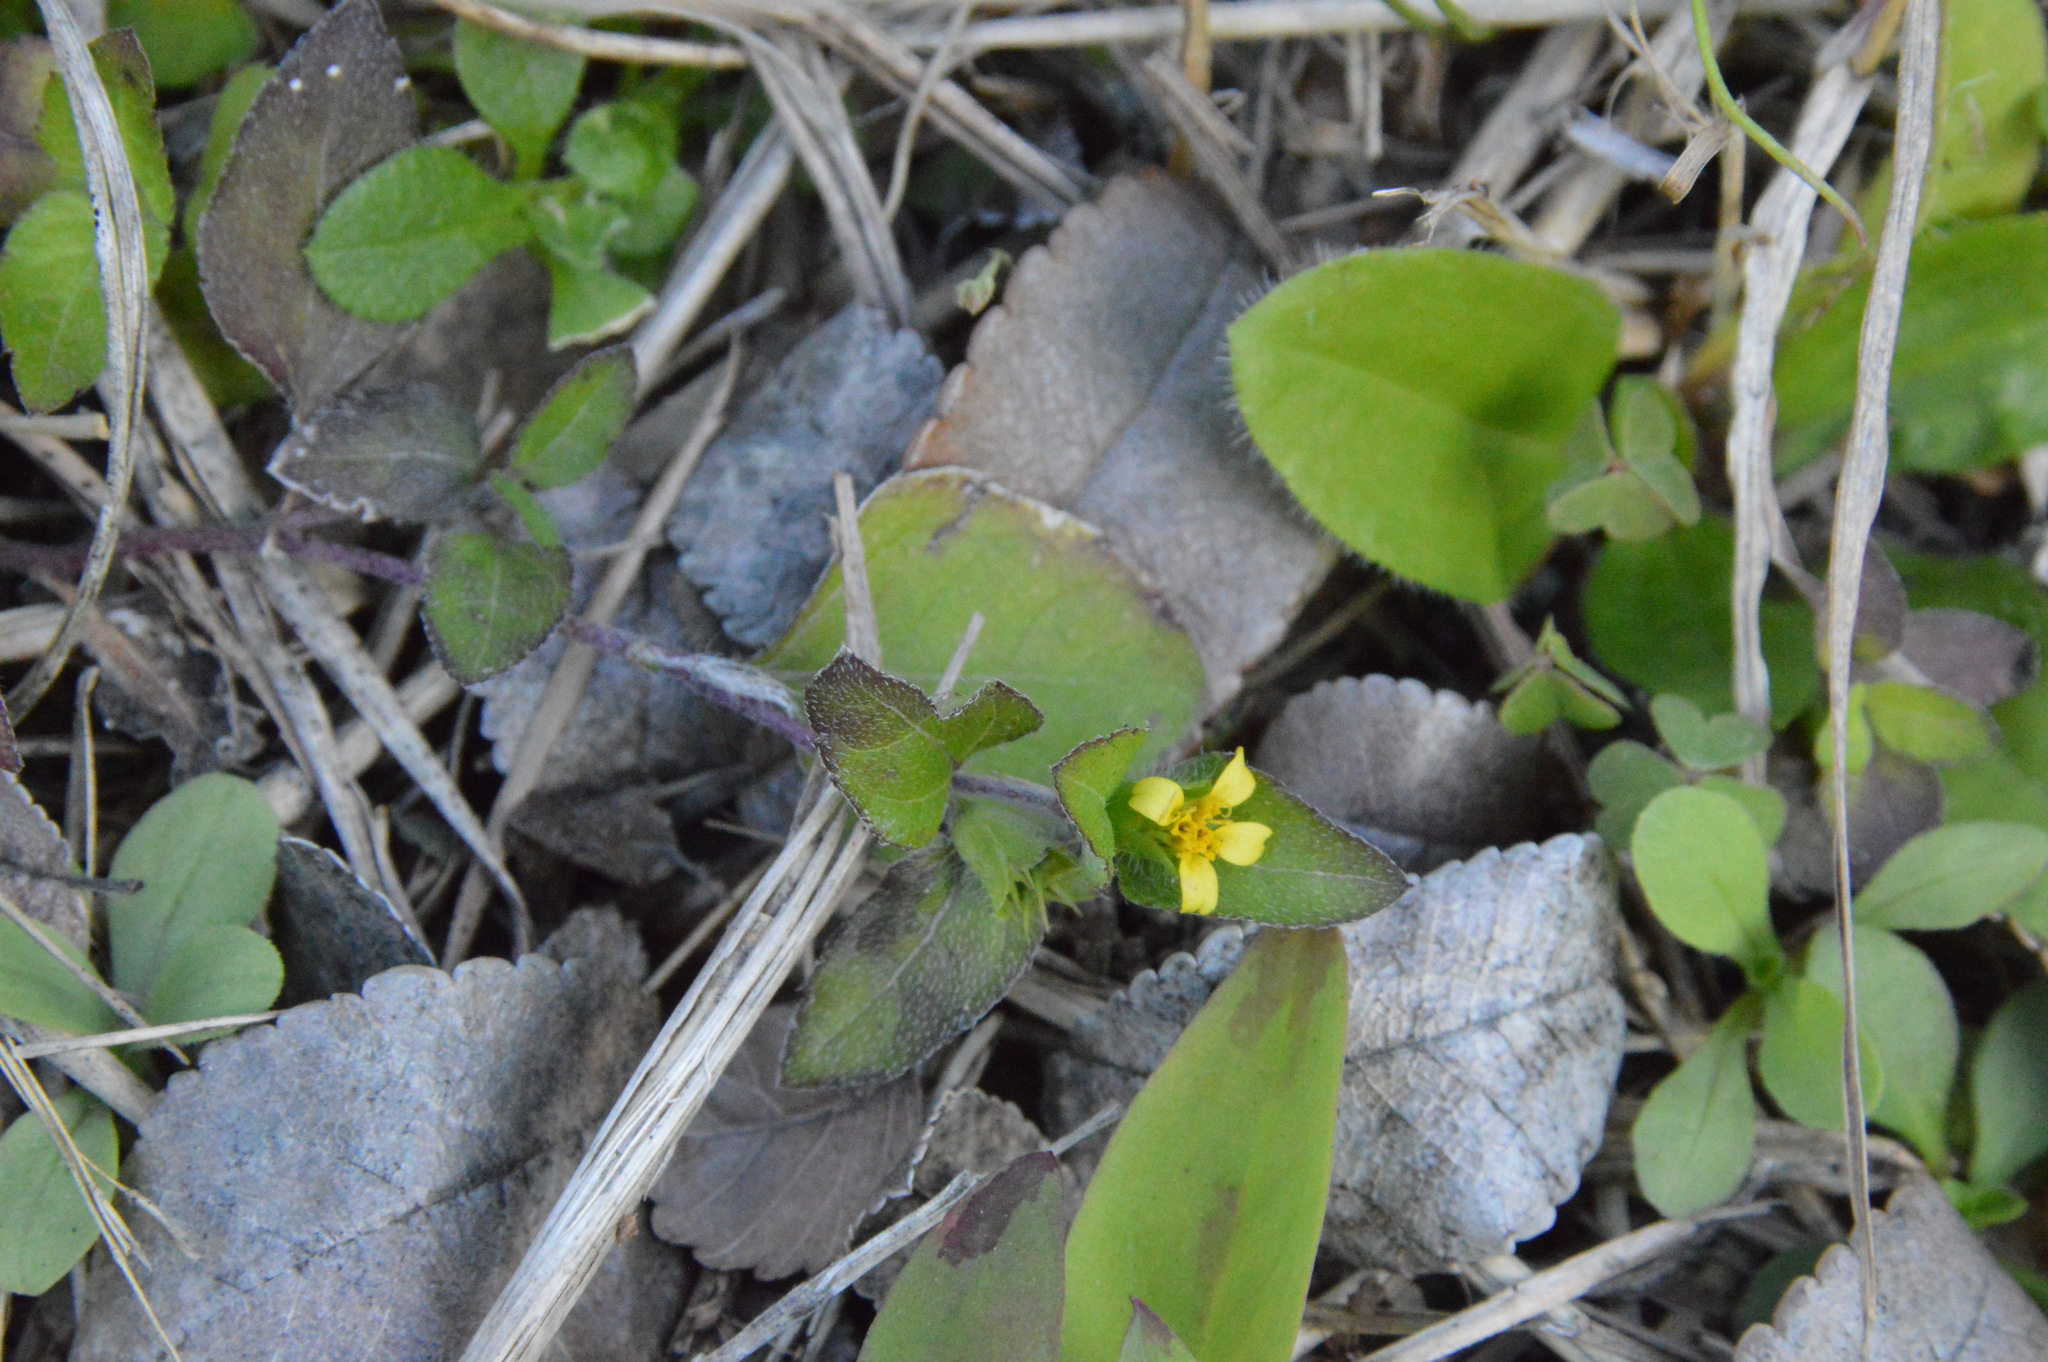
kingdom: Plantae
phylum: Tracheophyta
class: Magnoliopsida
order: Asterales
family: Asteraceae
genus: Calyptocarpus
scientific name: Calyptocarpus vialis
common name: Straggler daisy
